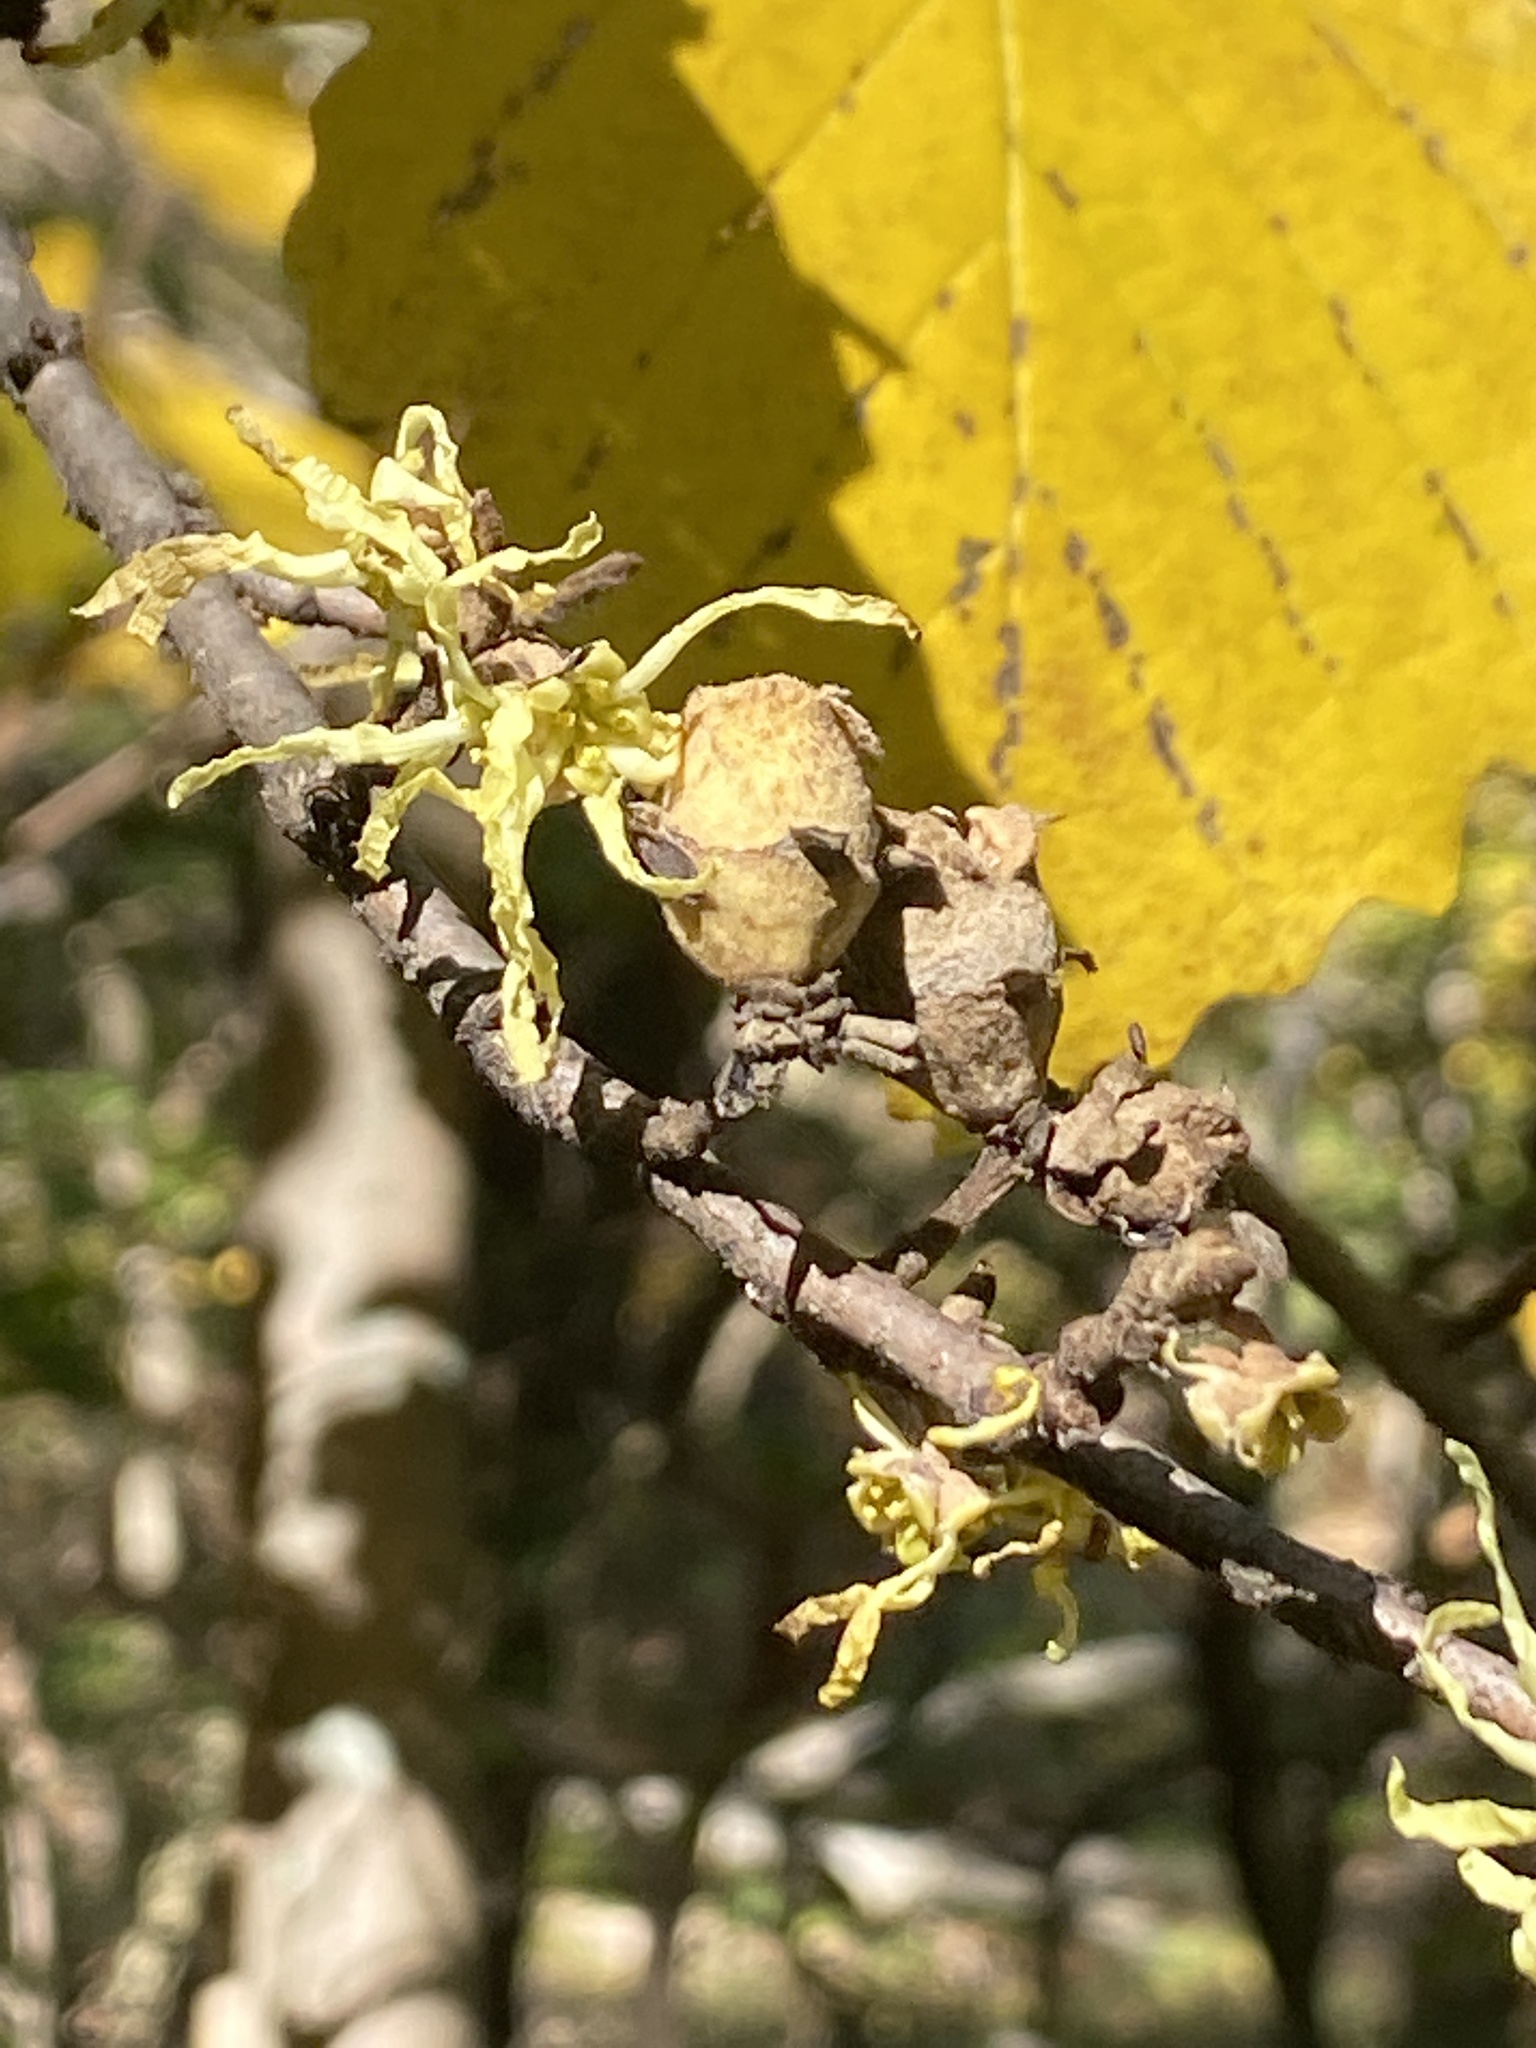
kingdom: Plantae
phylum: Tracheophyta
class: Magnoliopsida
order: Saxifragales
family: Hamamelidaceae
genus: Hamamelis
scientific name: Hamamelis virginiana
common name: Witch-hazel
